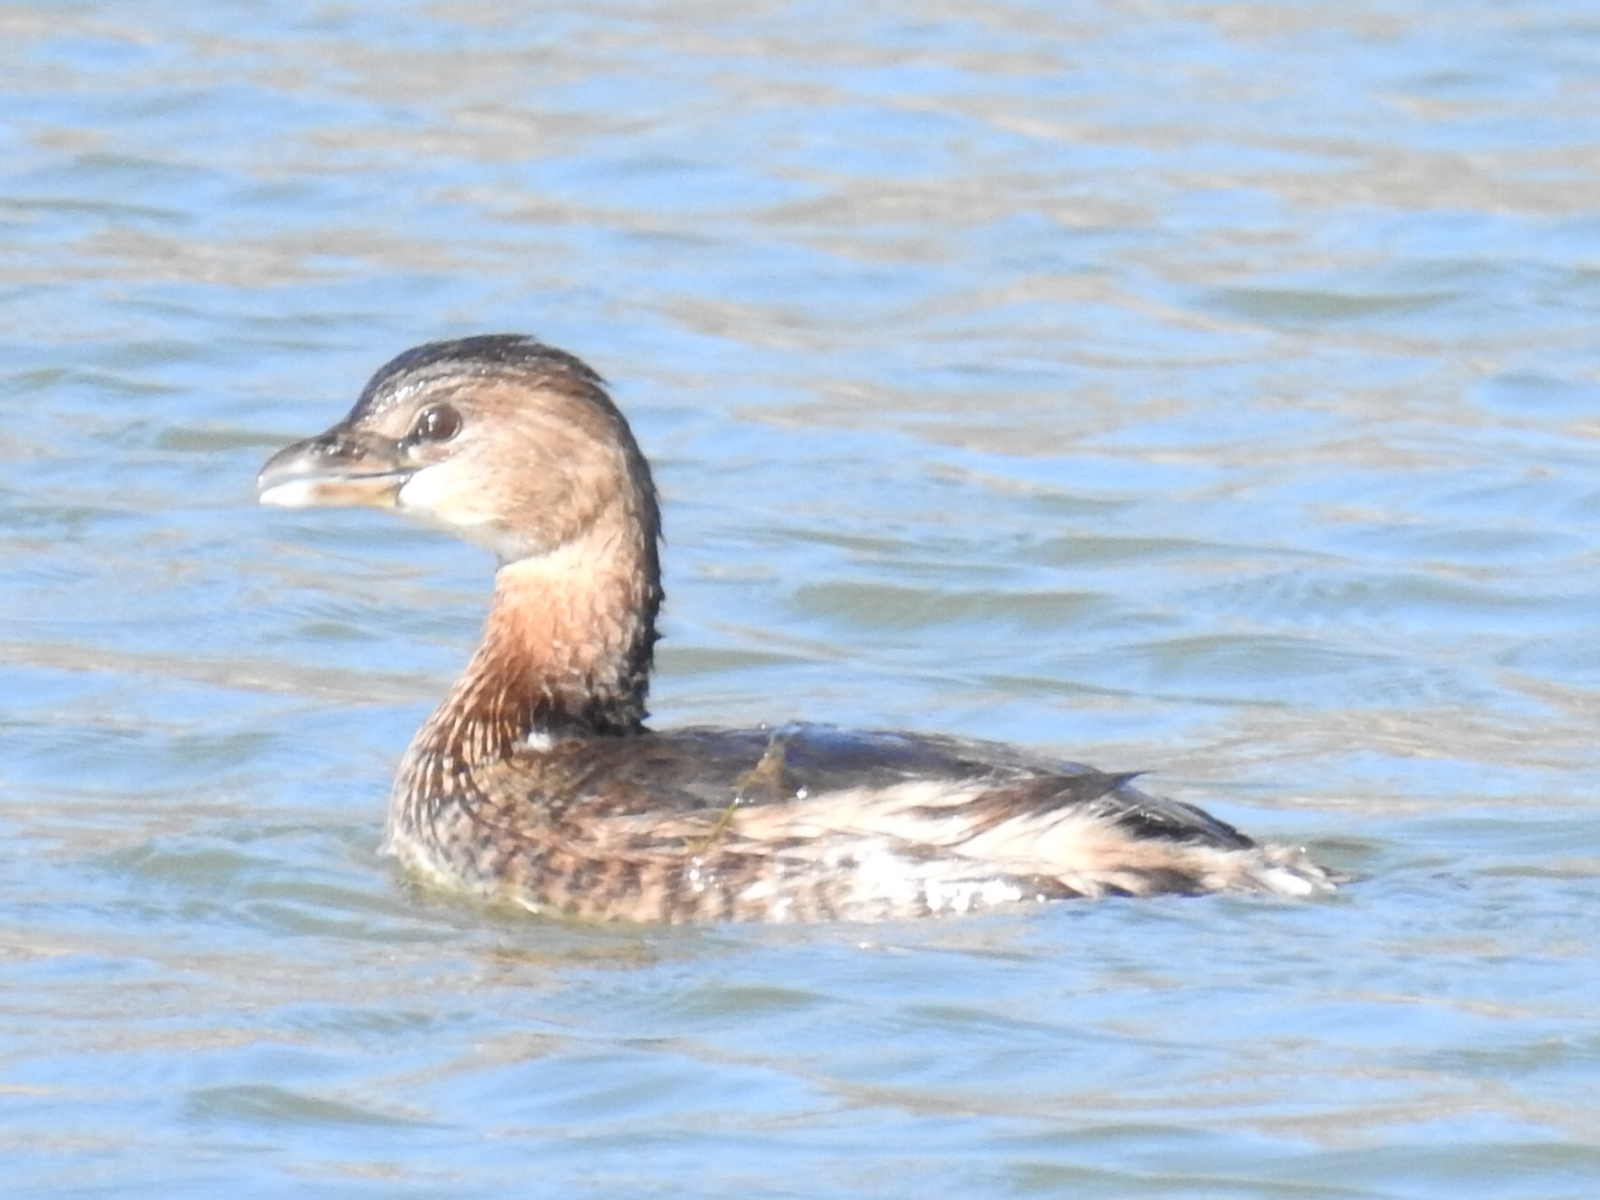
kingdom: Animalia
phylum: Chordata
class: Aves
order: Podicipediformes
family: Podicipedidae
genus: Podilymbus
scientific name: Podilymbus podiceps
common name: Pied-billed grebe
